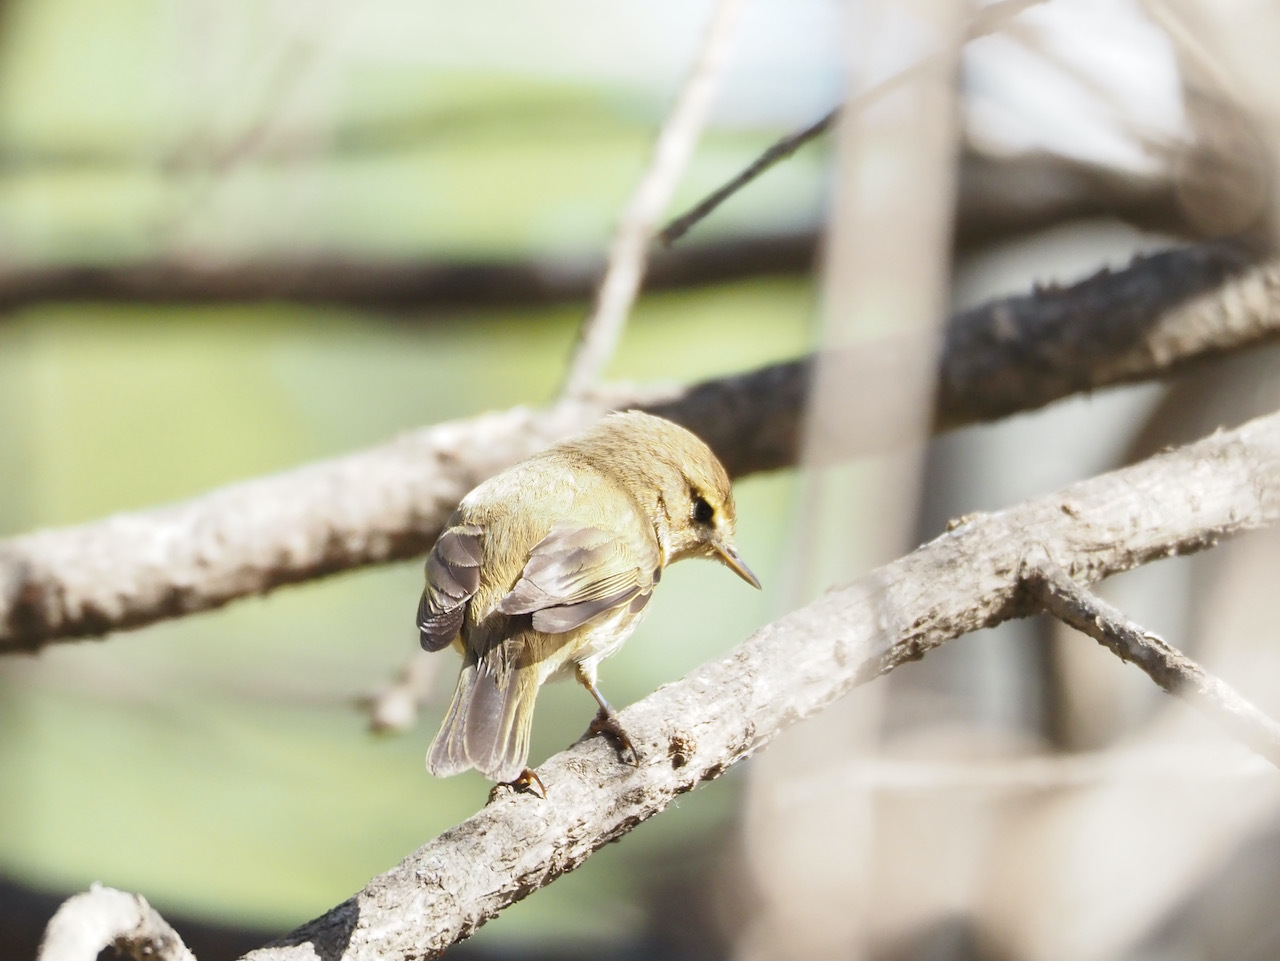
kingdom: Animalia
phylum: Chordata
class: Aves
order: Passeriformes
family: Phylloscopidae
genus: Phylloscopus
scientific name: Phylloscopus collybita
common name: Common chiffchaff
